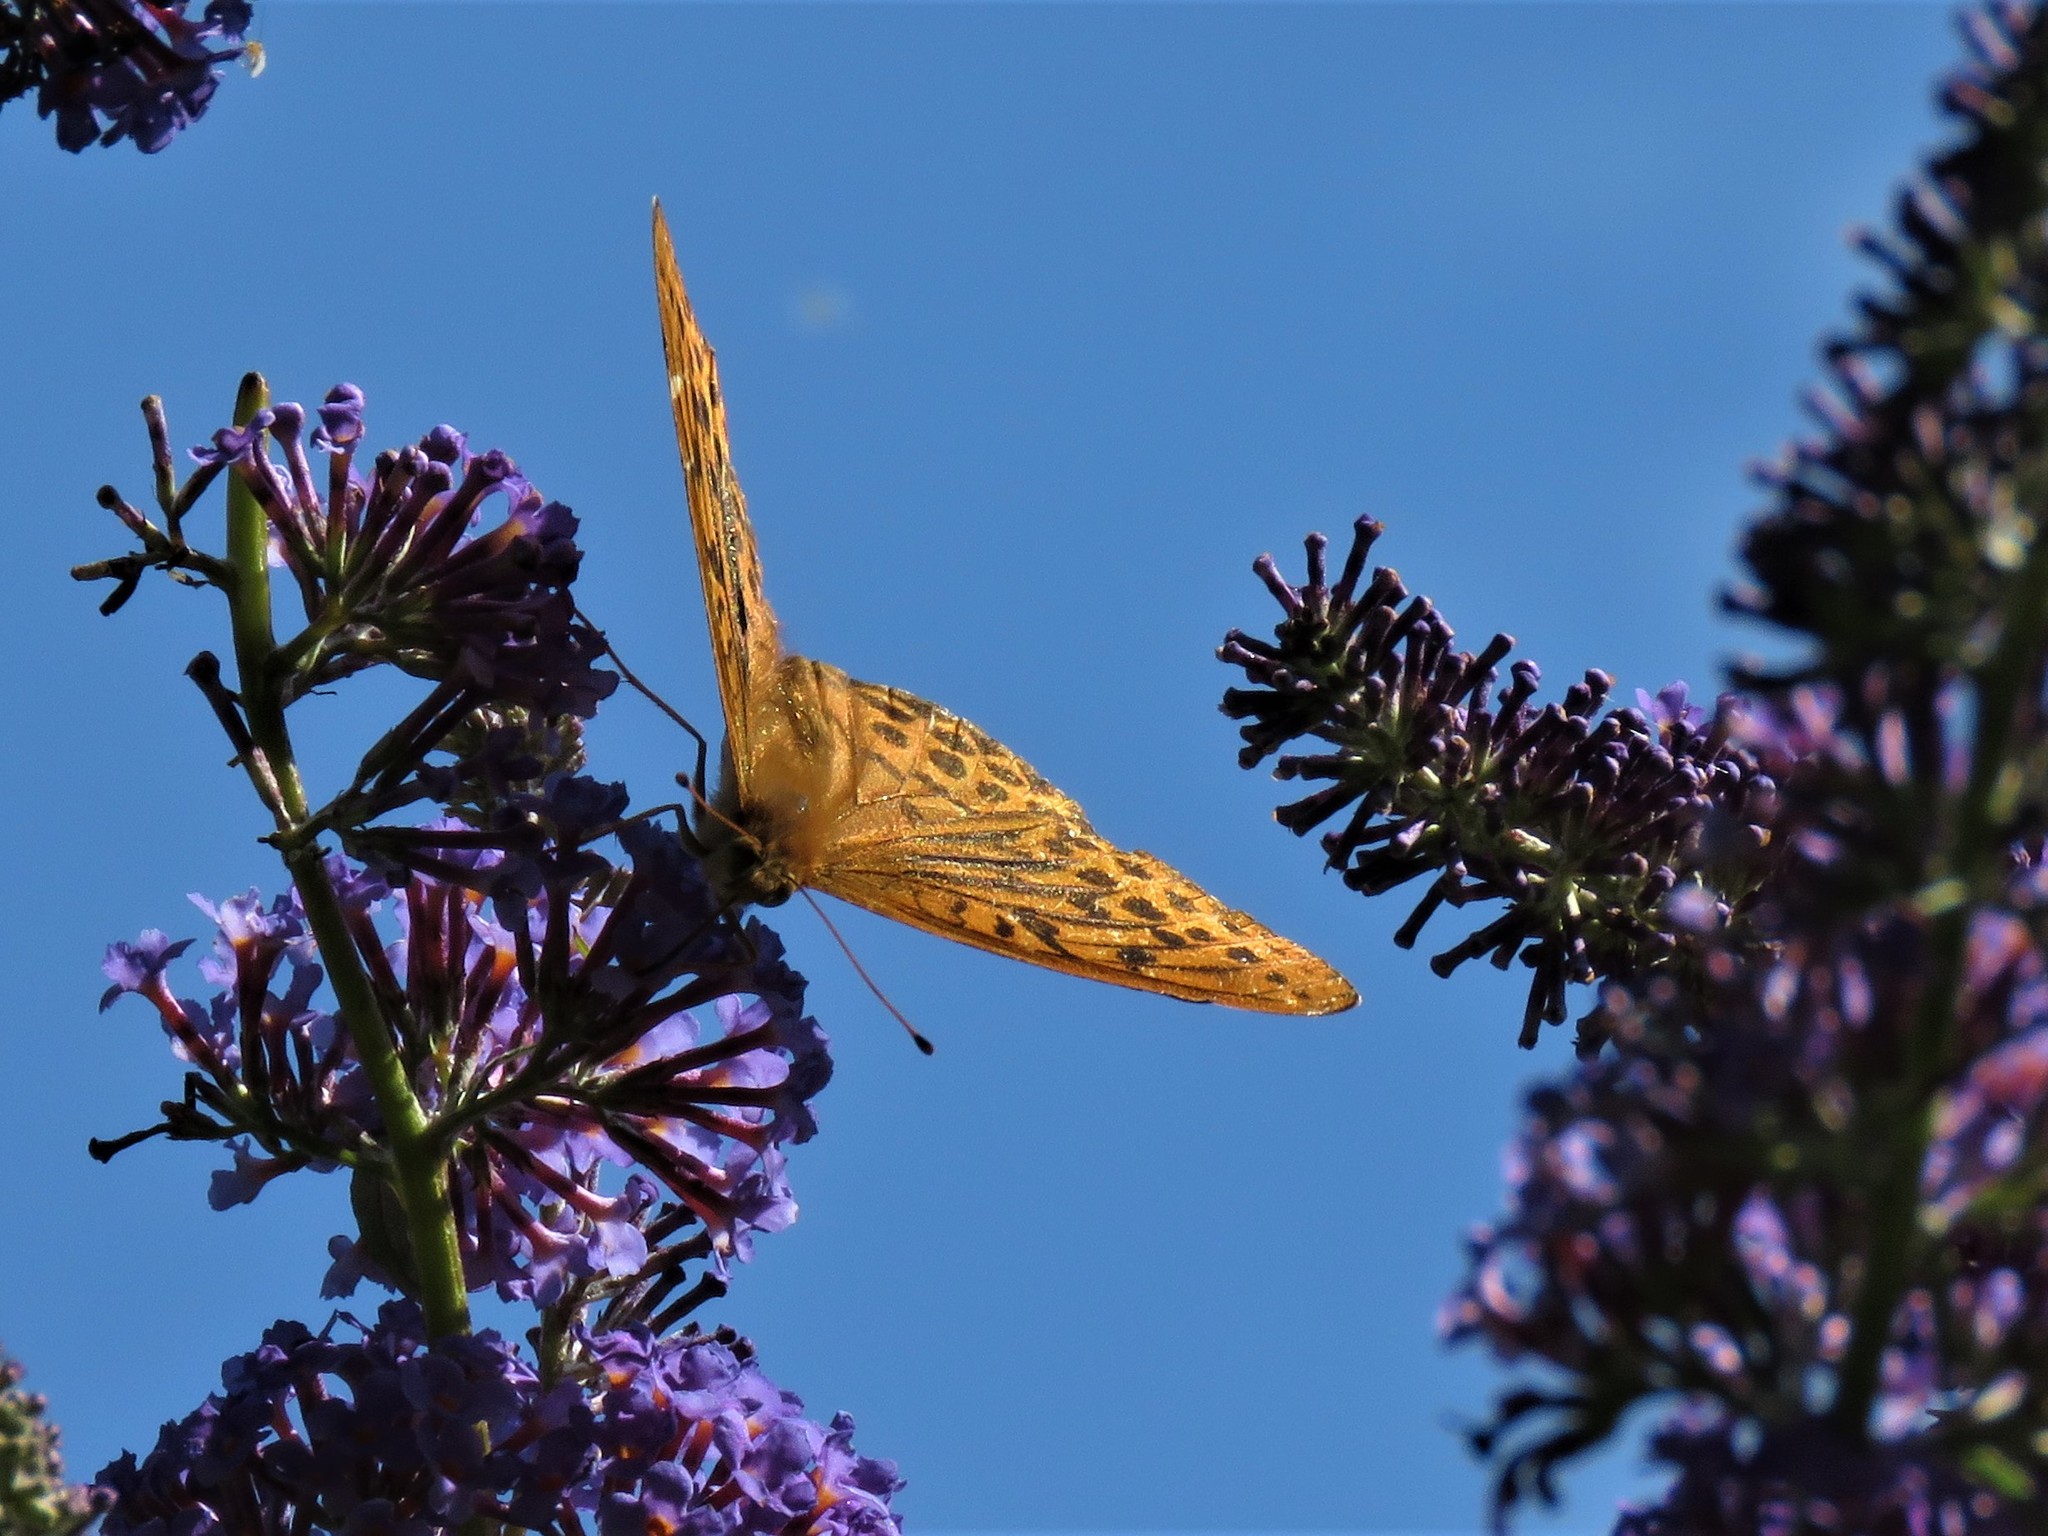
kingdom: Animalia
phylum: Arthropoda
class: Insecta
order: Lepidoptera
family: Nymphalidae
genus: Argynnis
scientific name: Argynnis paphia
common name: Silver-washed fritillary
